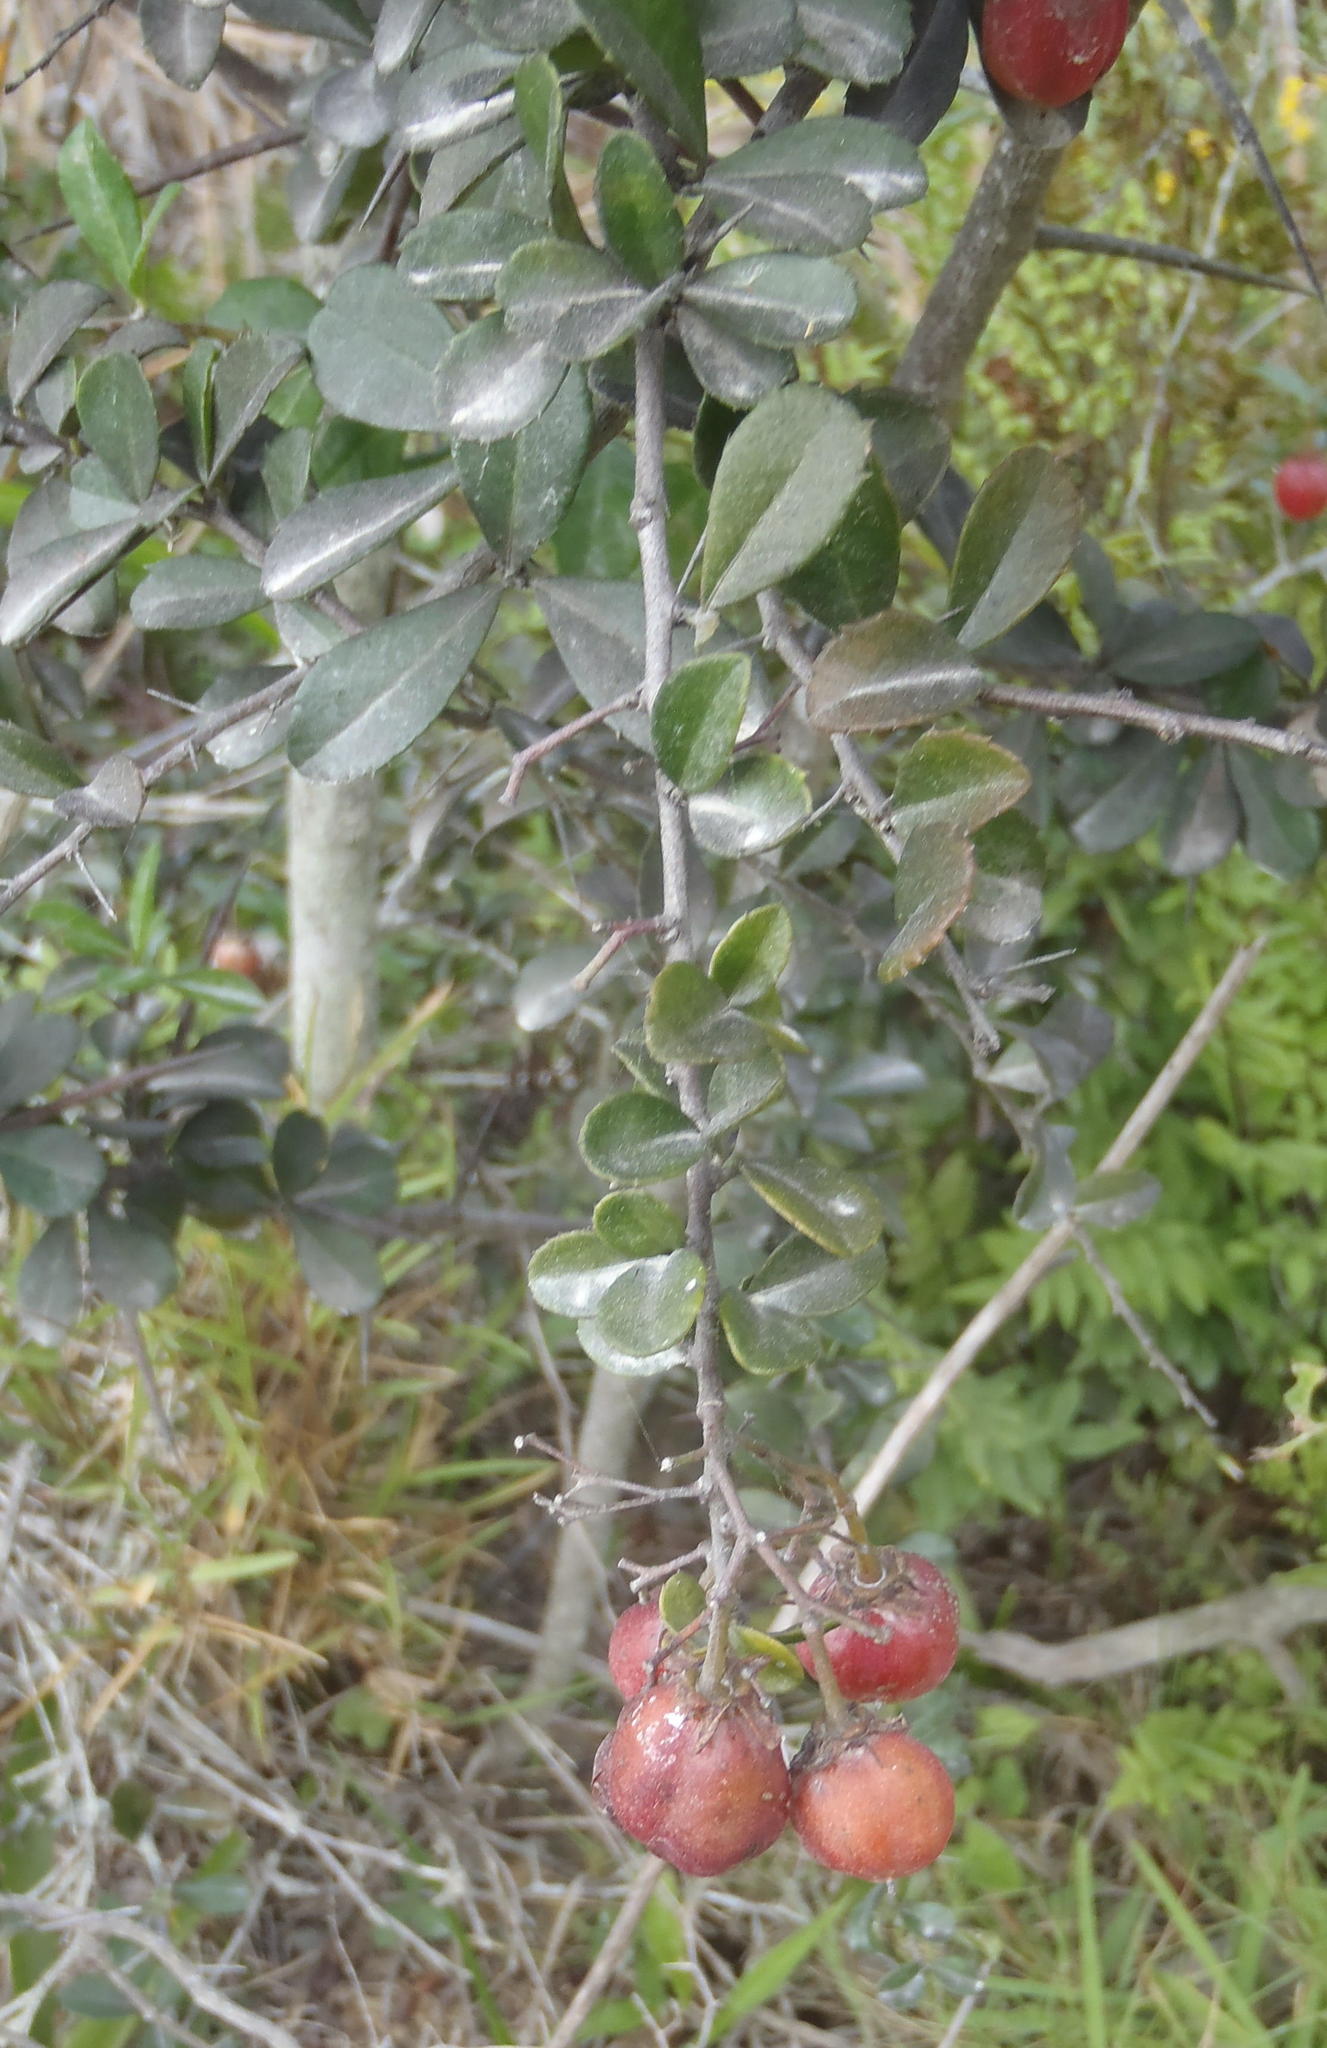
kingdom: Plantae
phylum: Tracheophyta
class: Magnoliopsida
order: Celastrales
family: Celastraceae
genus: Putterlickia
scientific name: Putterlickia pyracantha
